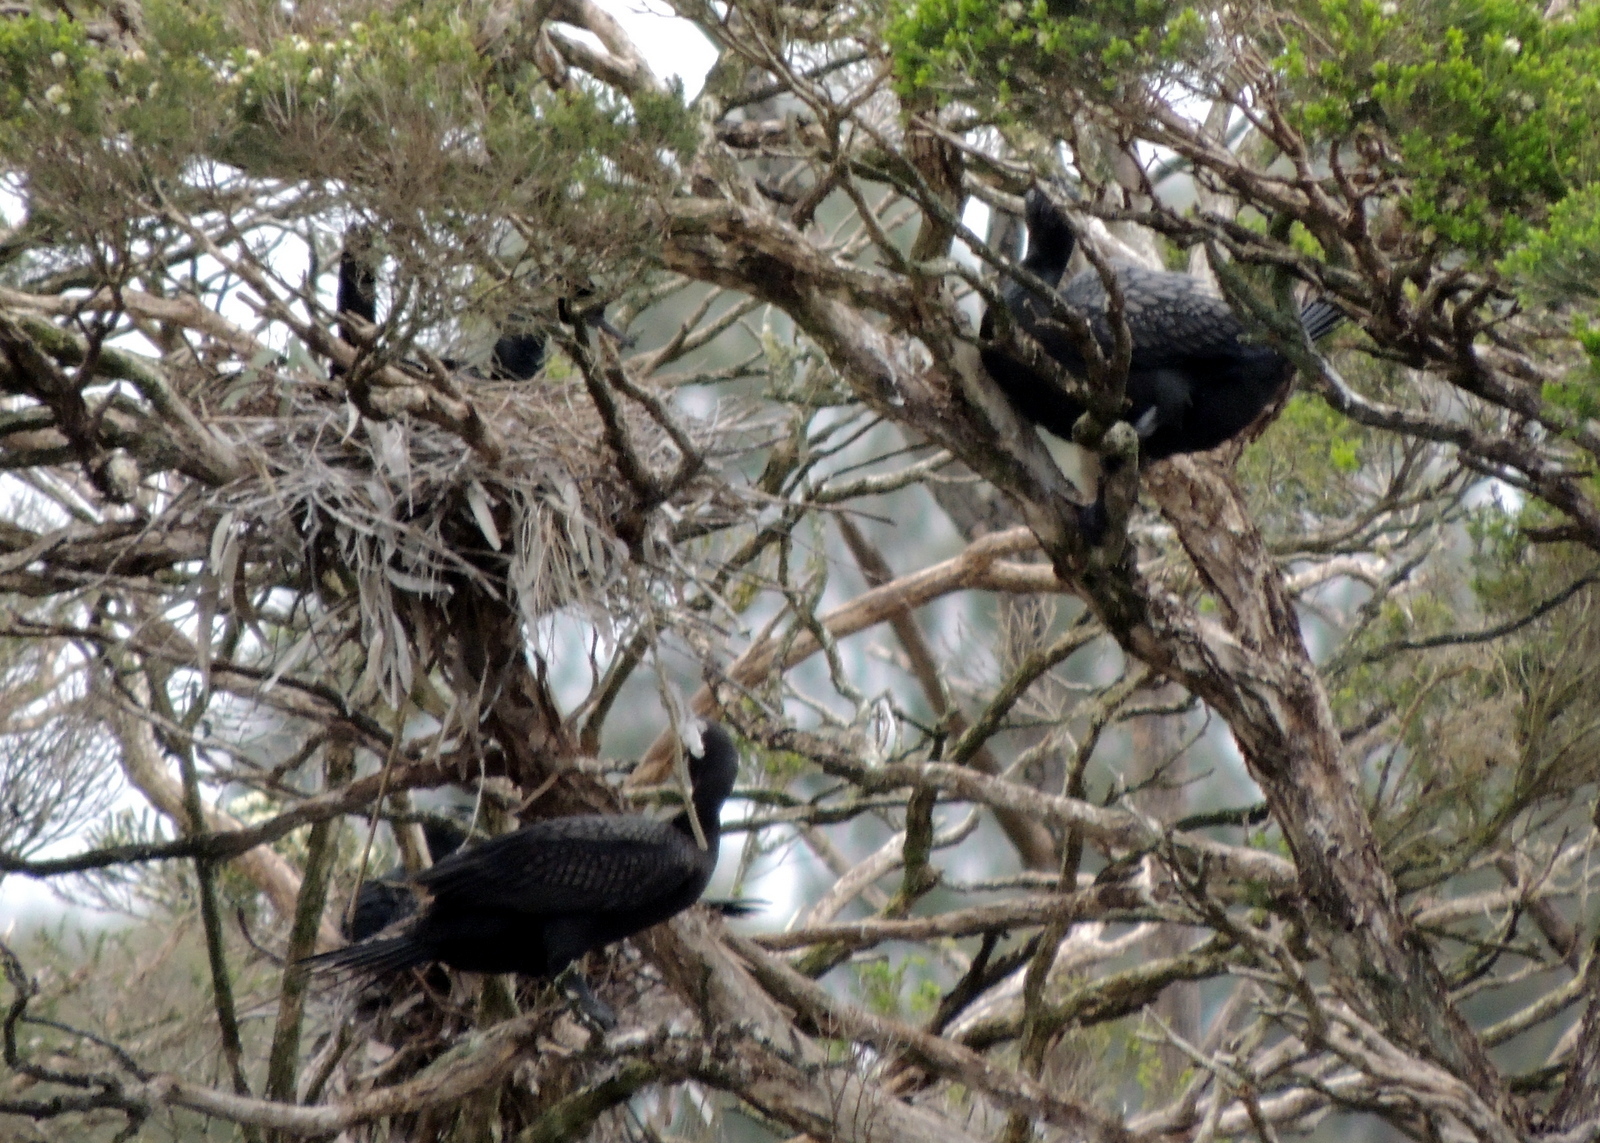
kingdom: Animalia
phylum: Chordata
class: Aves
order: Suliformes
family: Phalacrocoracidae
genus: Phalacrocorax
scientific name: Phalacrocorax sulcirostris
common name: Little black cormorant
